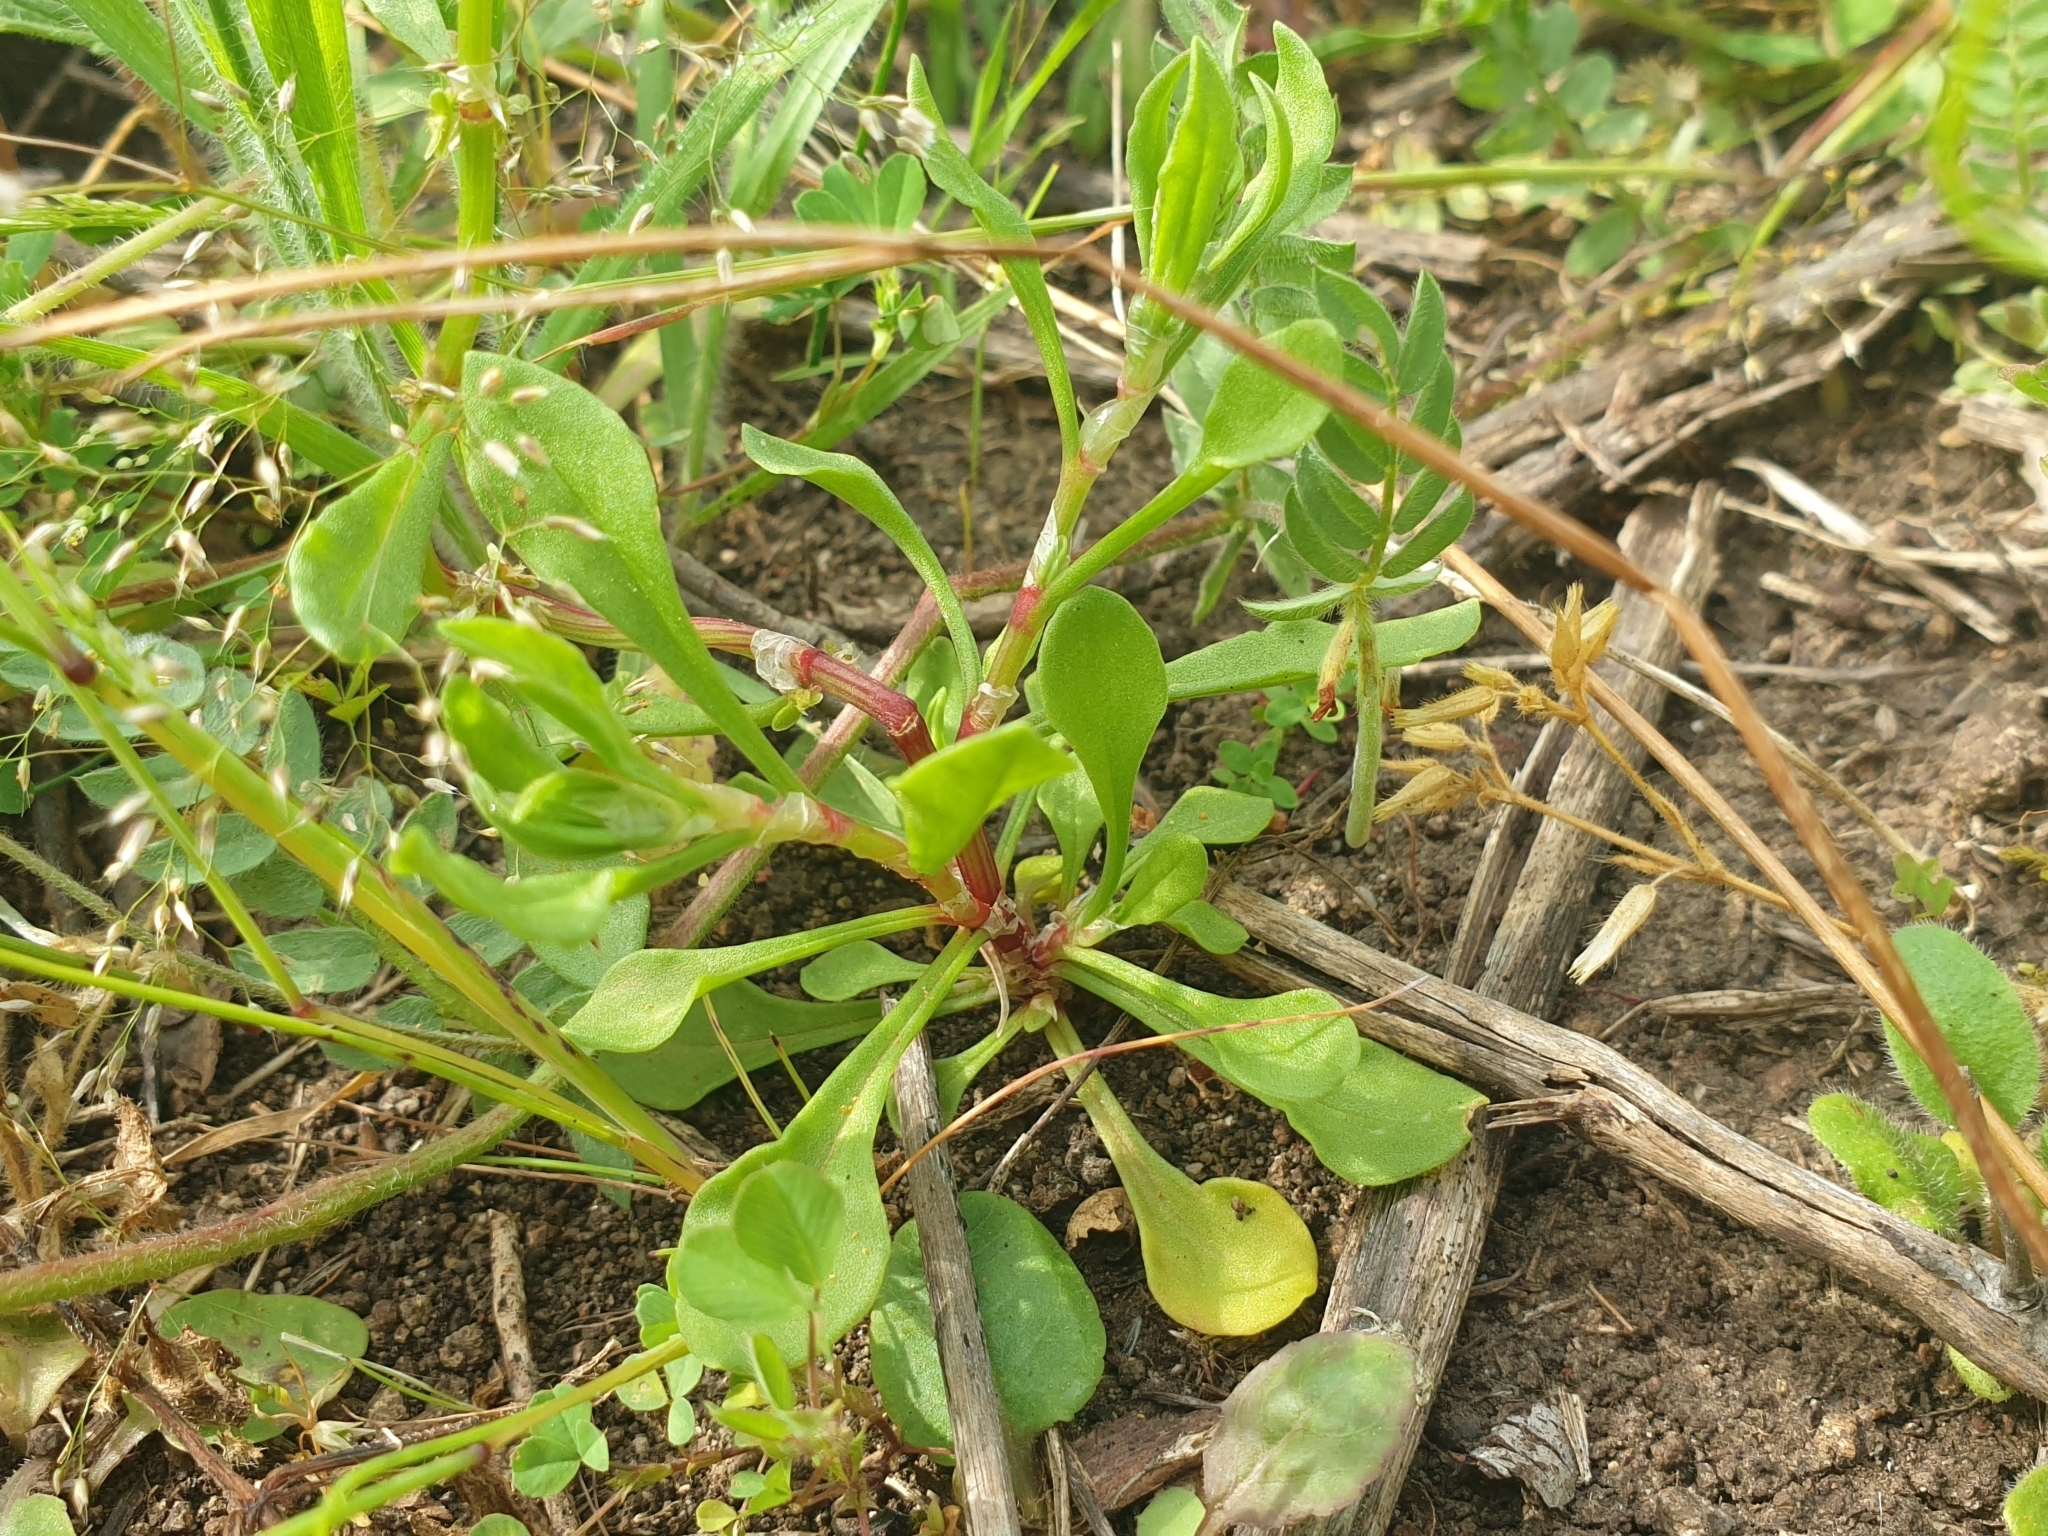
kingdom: Plantae
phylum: Tracheophyta
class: Magnoliopsida
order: Caryophyllales
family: Polygonaceae
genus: Rumex
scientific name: Rumex bucephalophorus
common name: Red dock
